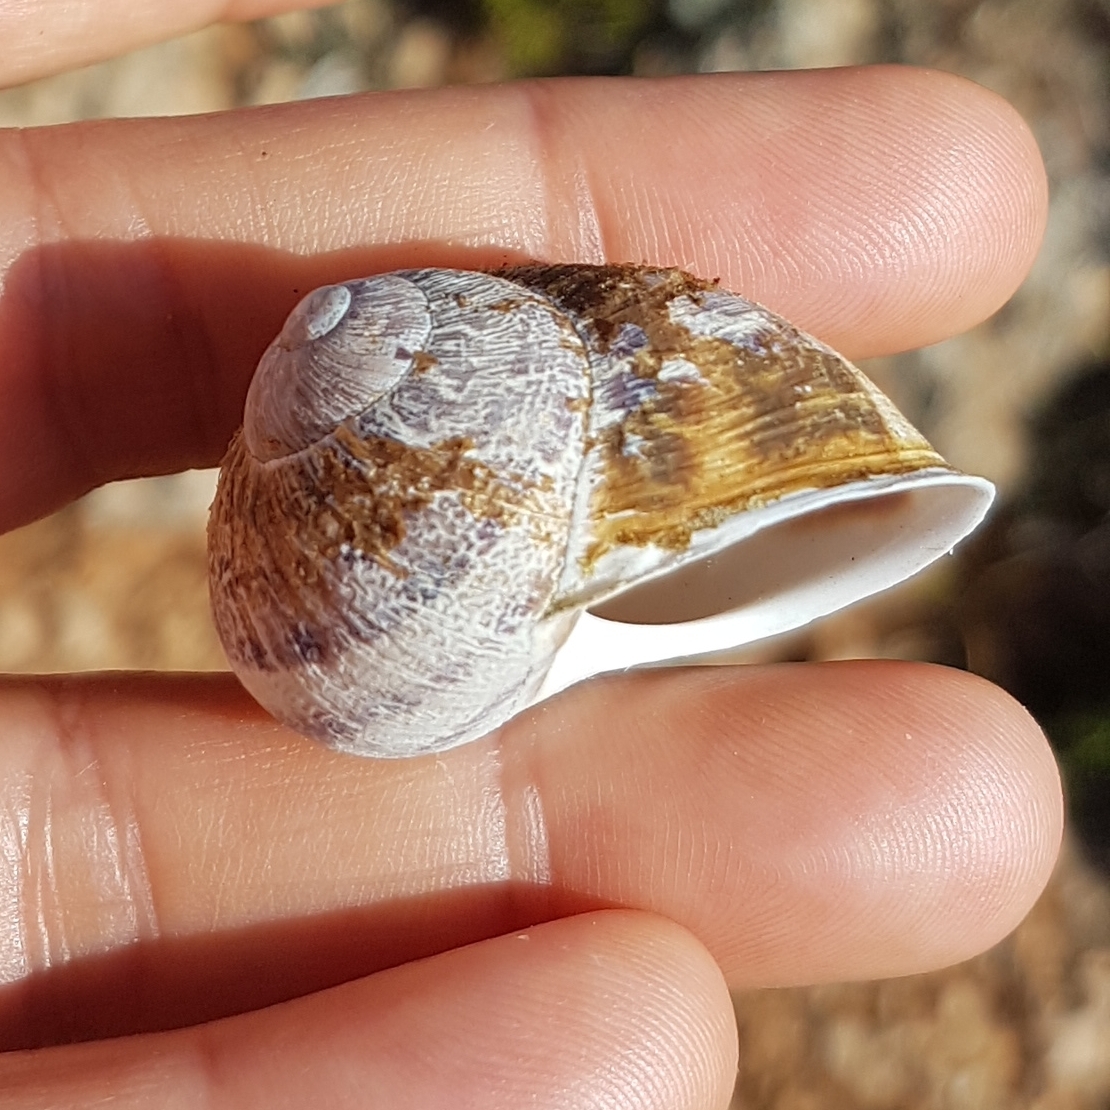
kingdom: Animalia
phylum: Mollusca
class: Gastropoda
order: Stylommatophora
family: Helicidae
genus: Cornu
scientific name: Cornu aspersum
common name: Brown garden snail
